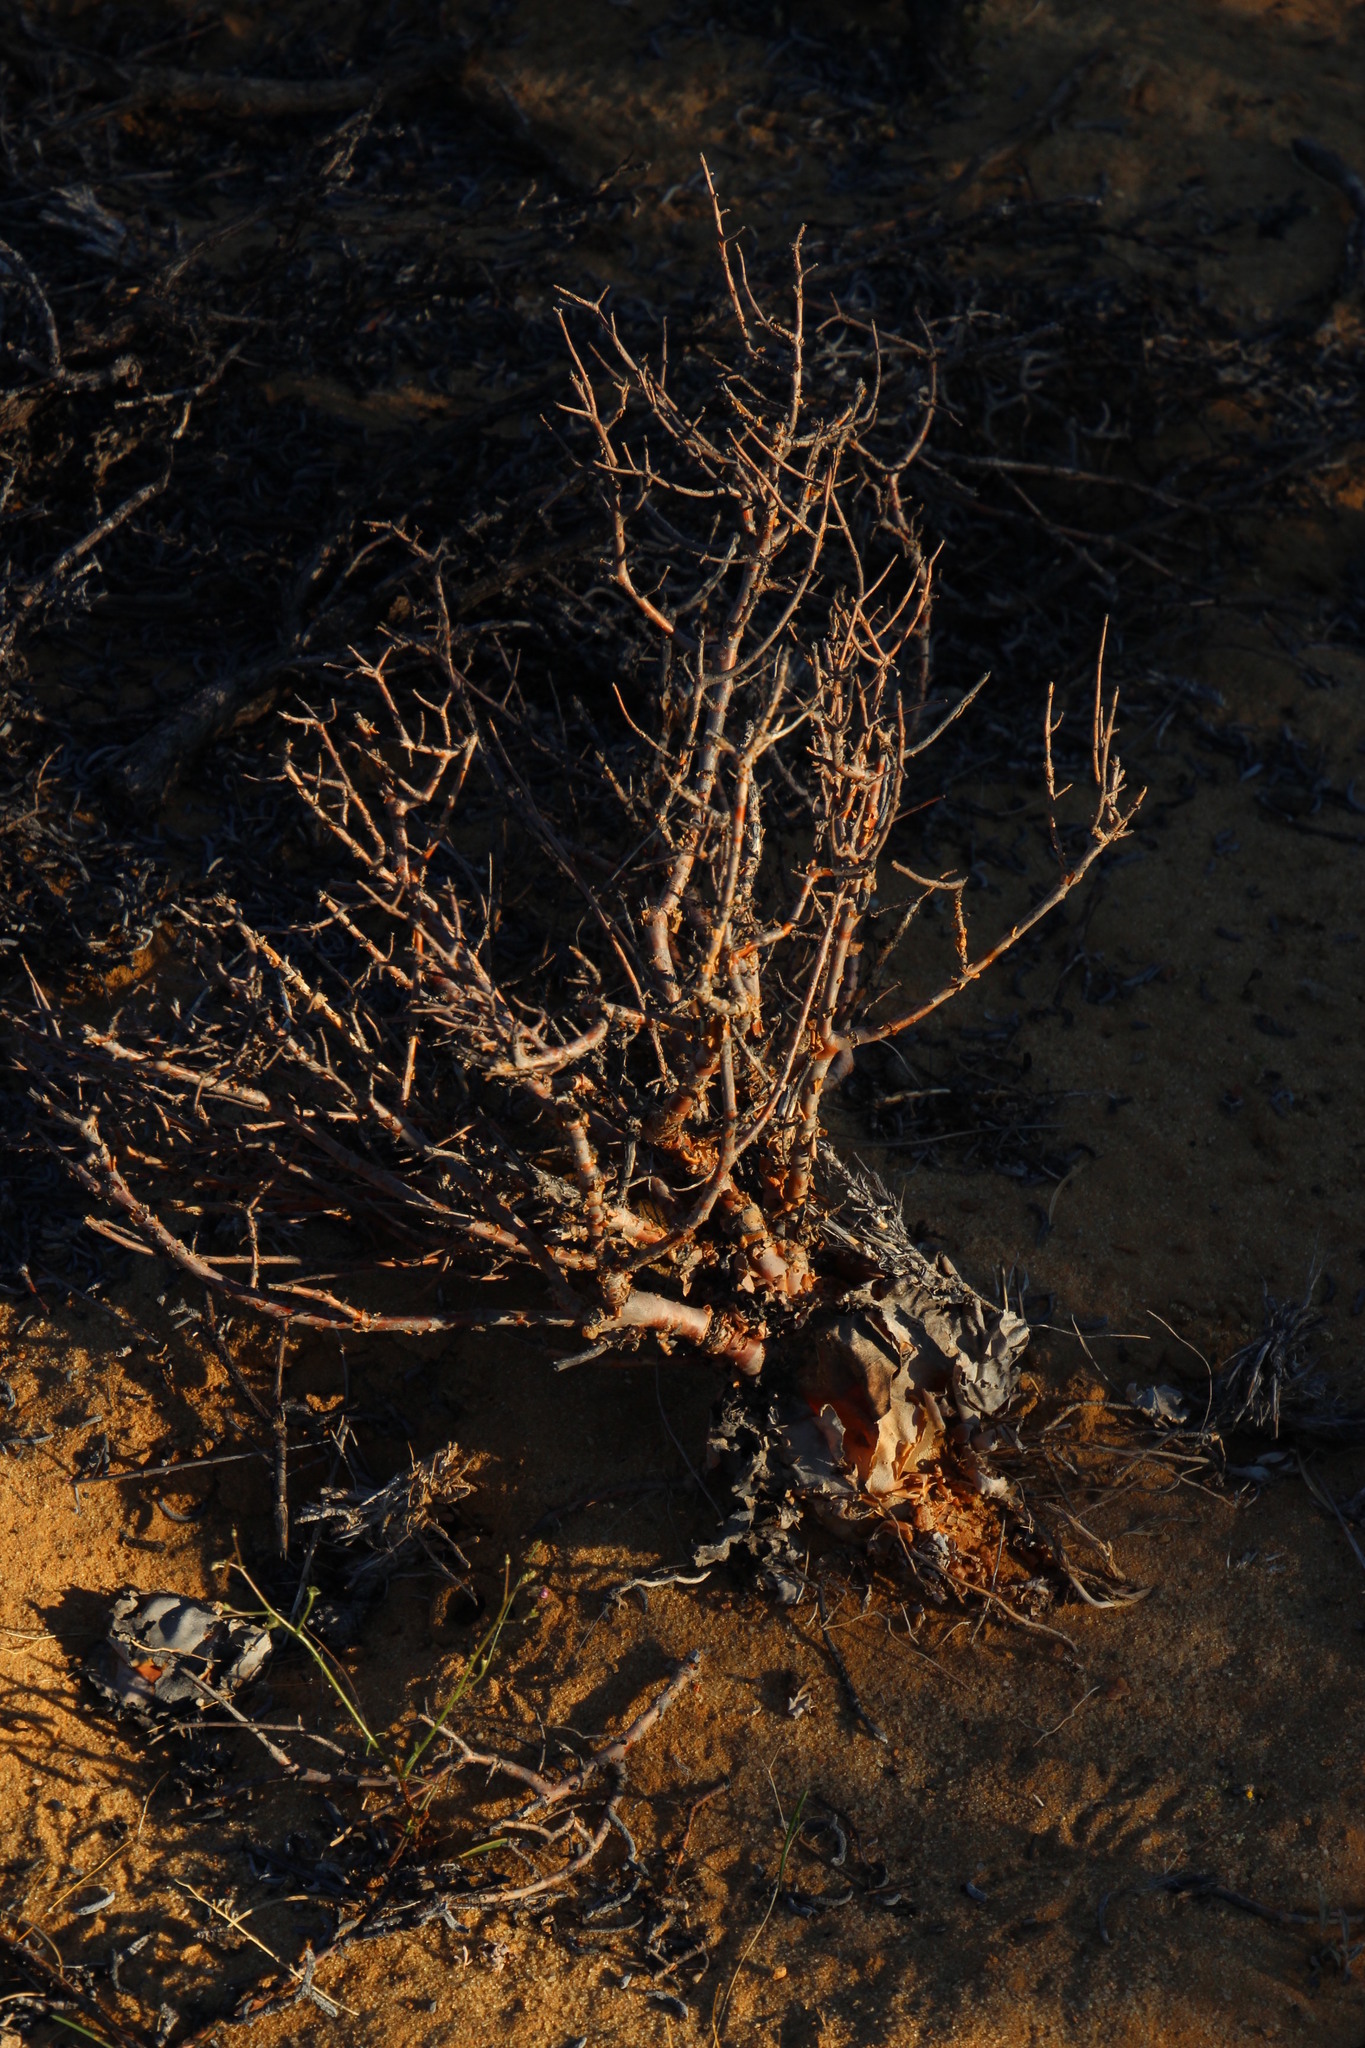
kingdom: Plantae
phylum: Tracheophyta
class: Magnoliopsida
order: Asterales
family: Asteraceae
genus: Othonna
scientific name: Othonna spinescens
